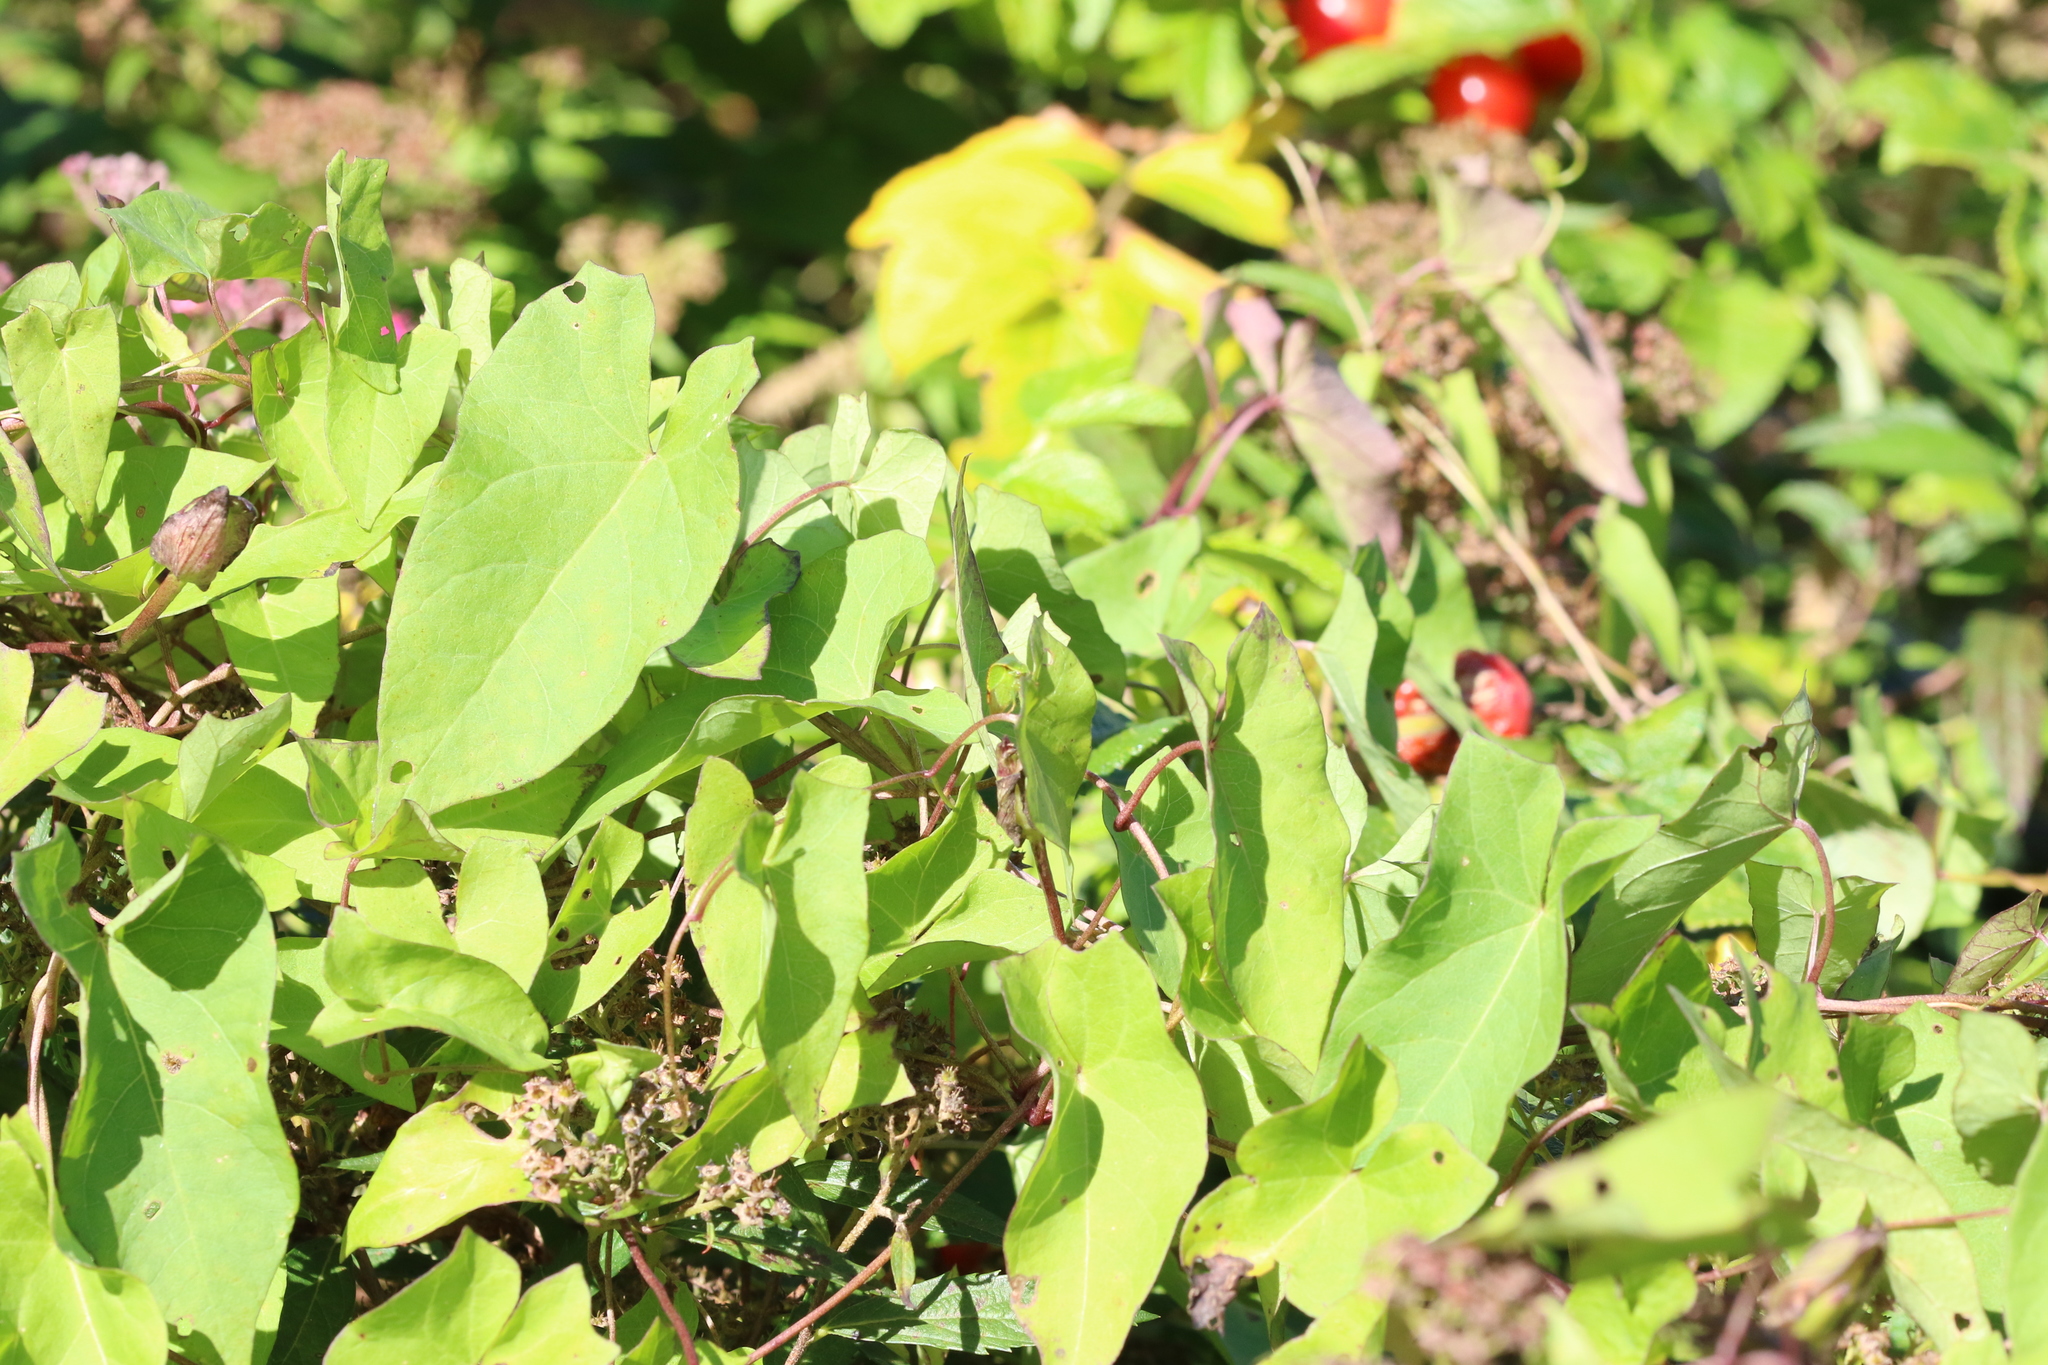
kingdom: Animalia
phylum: Arthropoda
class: Insecta
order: Hemiptera
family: Membracidae
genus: Stictocephala
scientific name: Stictocephala bisonia
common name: American buffalo treehopper
